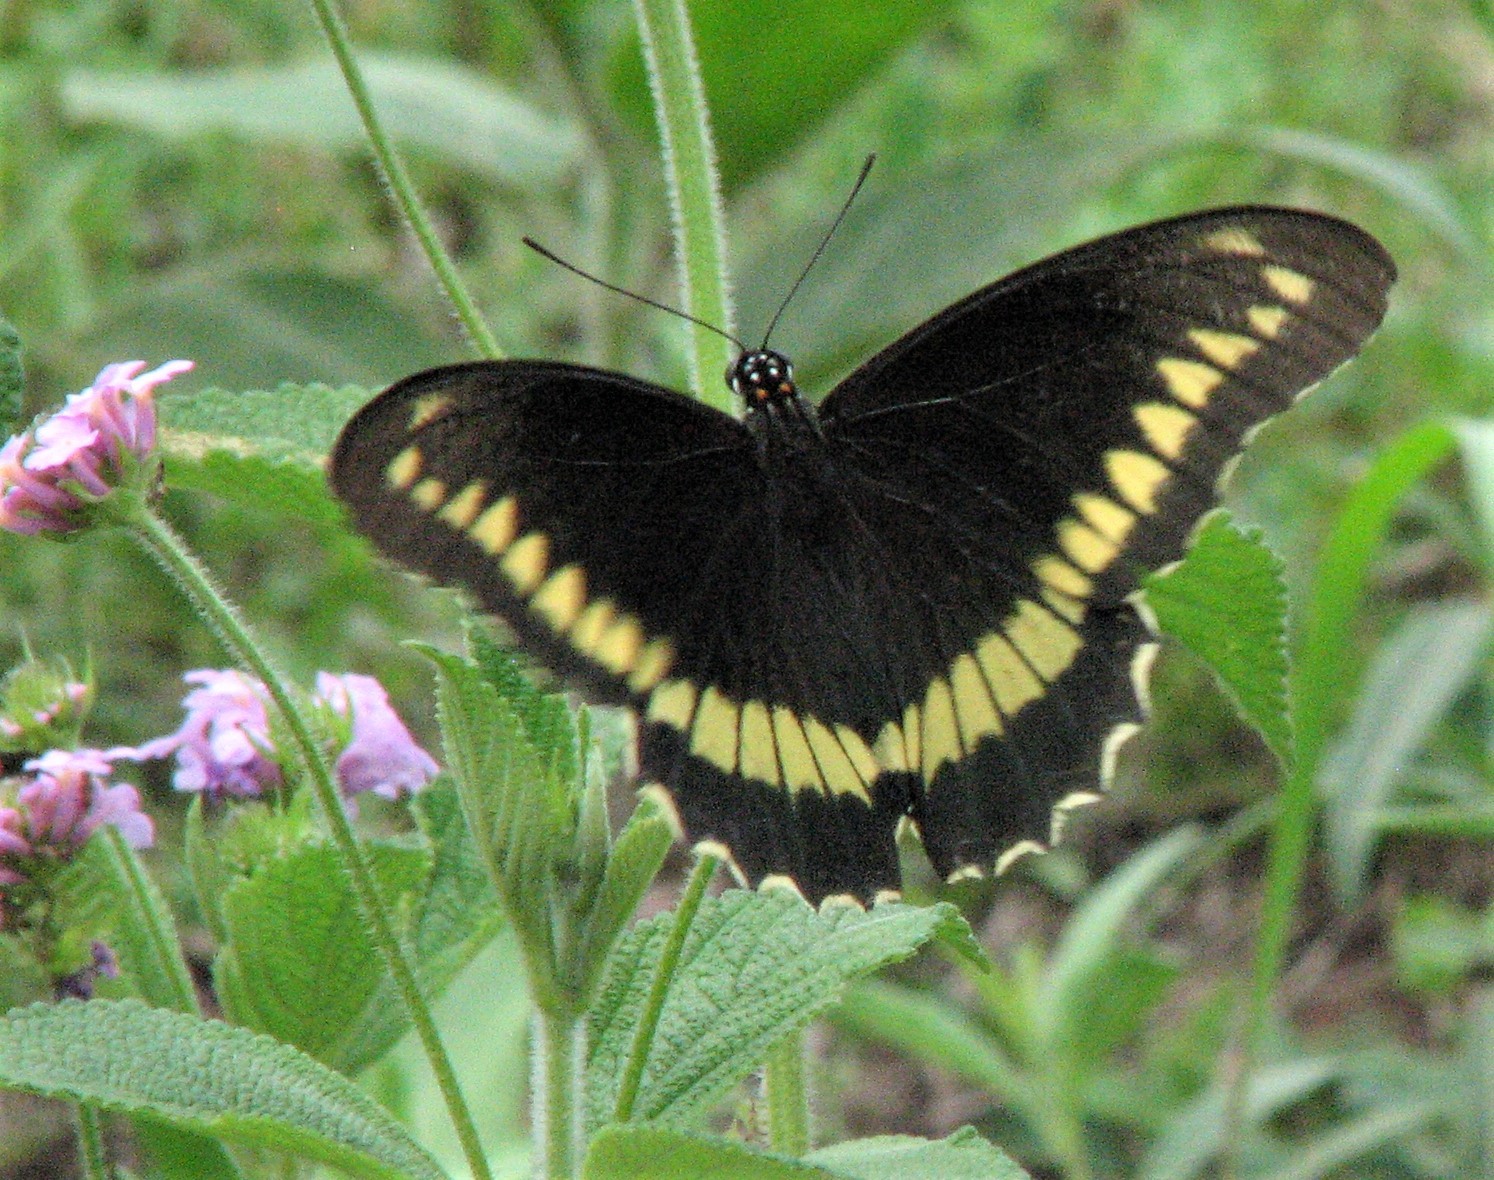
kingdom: Animalia
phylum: Arthropoda
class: Insecta
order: Lepidoptera
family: Papilionidae
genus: Battus
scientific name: Battus polydamas
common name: Polydamas swallowtail
